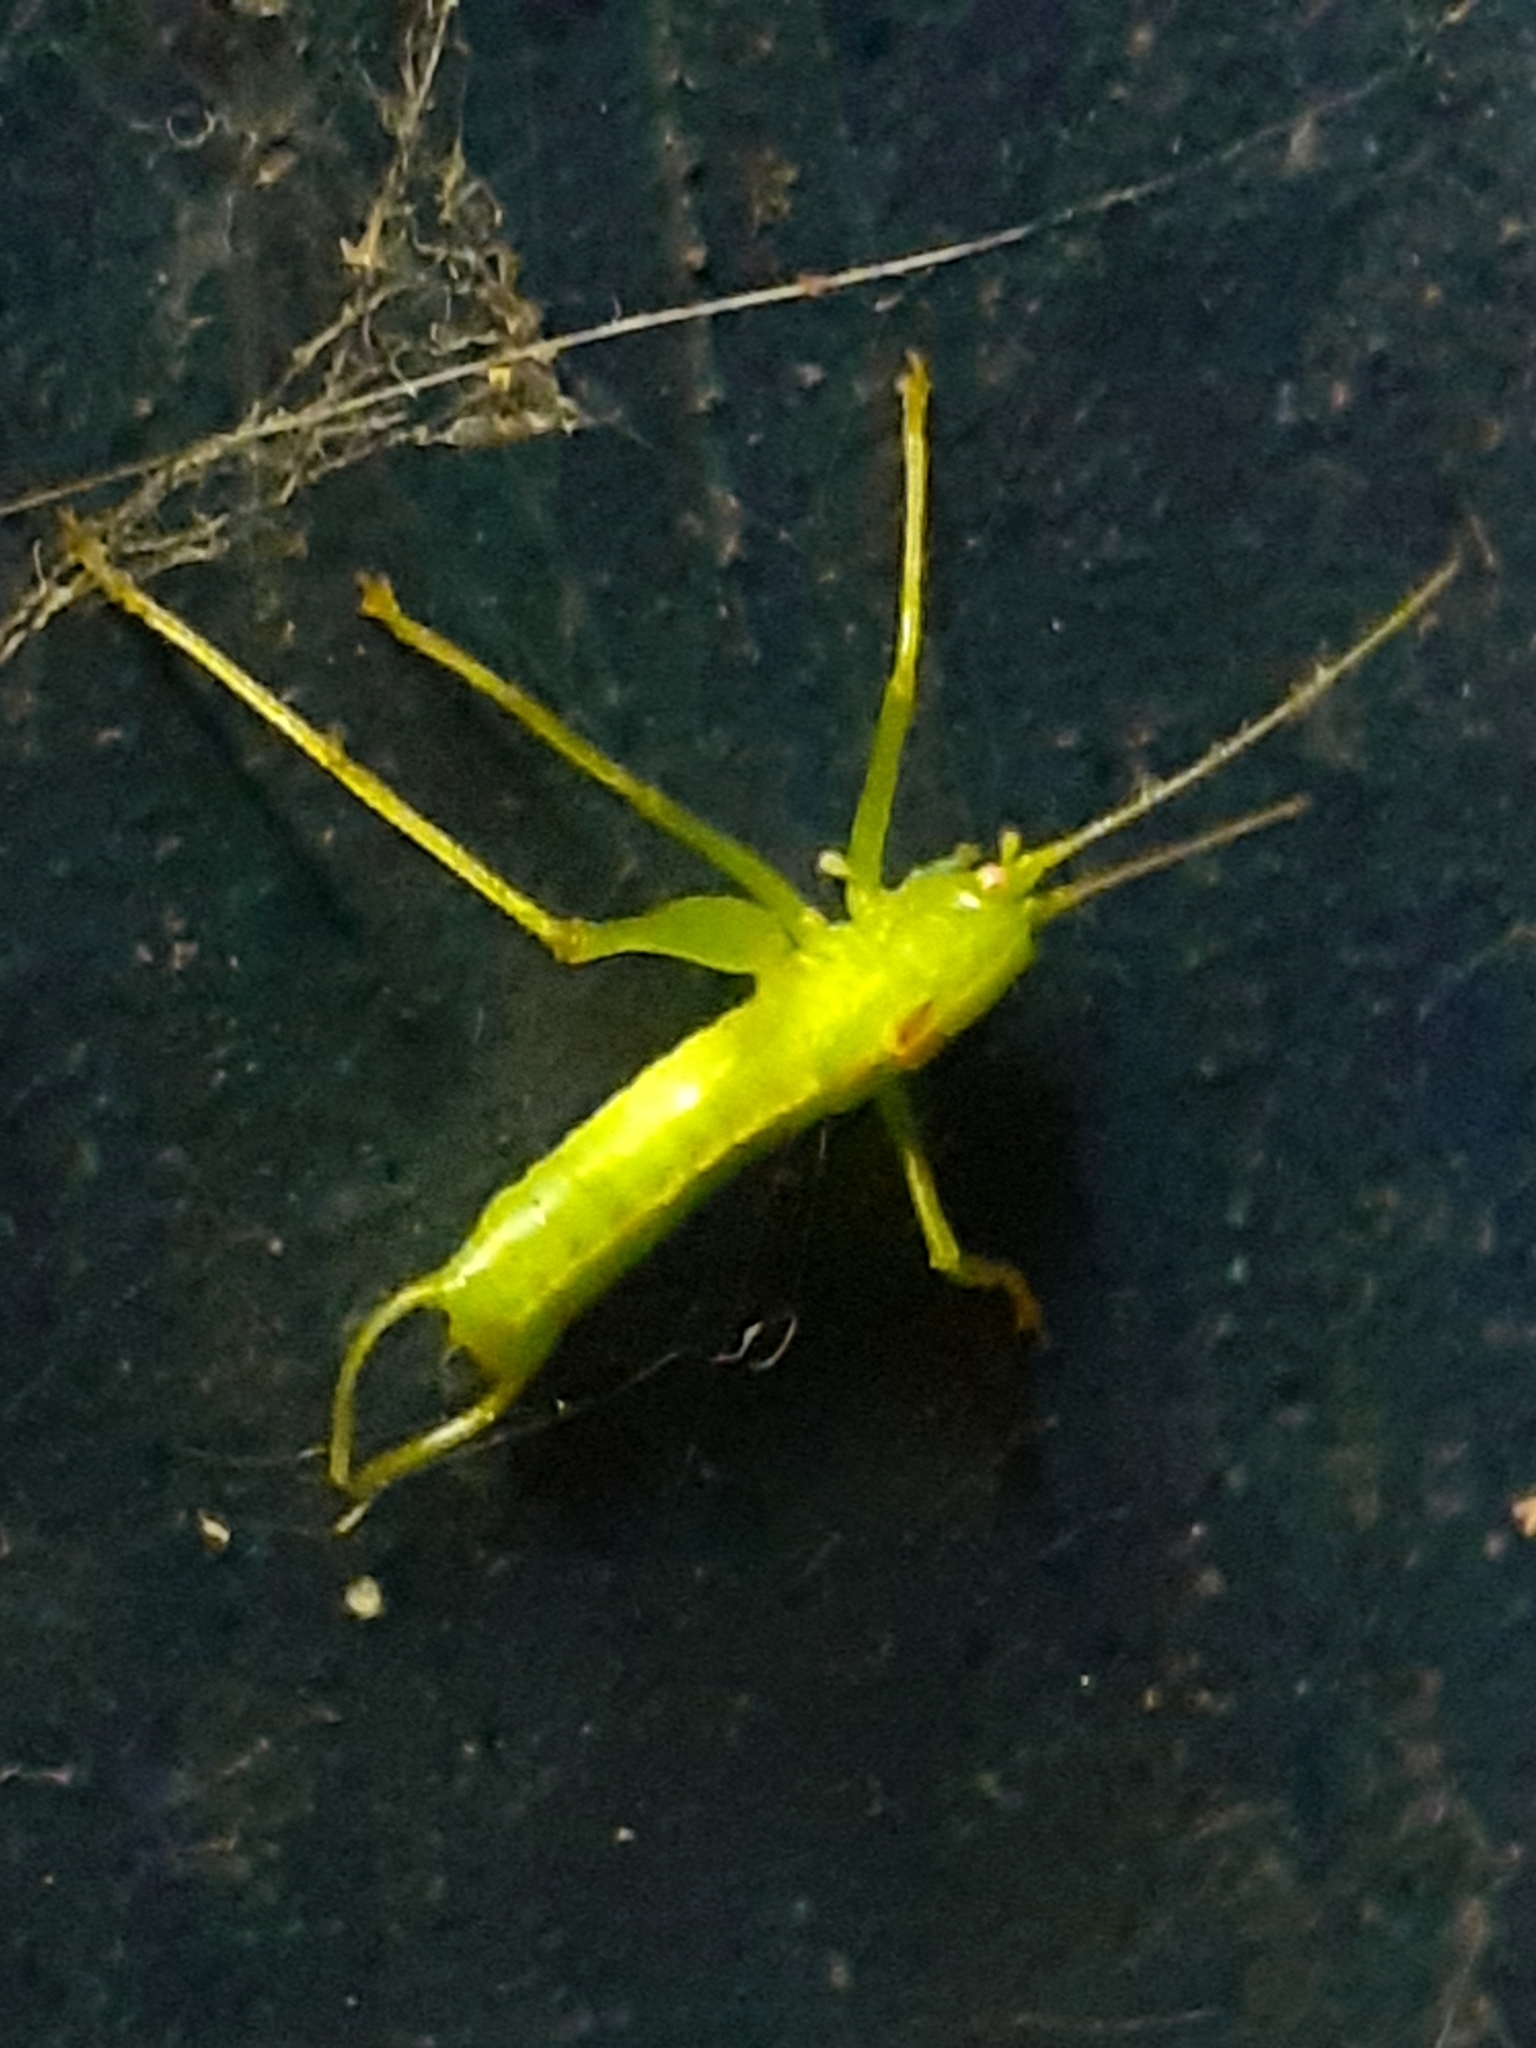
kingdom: Animalia
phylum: Arthropoda
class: Insecta
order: Orthoptera
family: Tettigoniidae
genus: Meconema
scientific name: Meconema meridionale
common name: Southern oak bush-cricket
